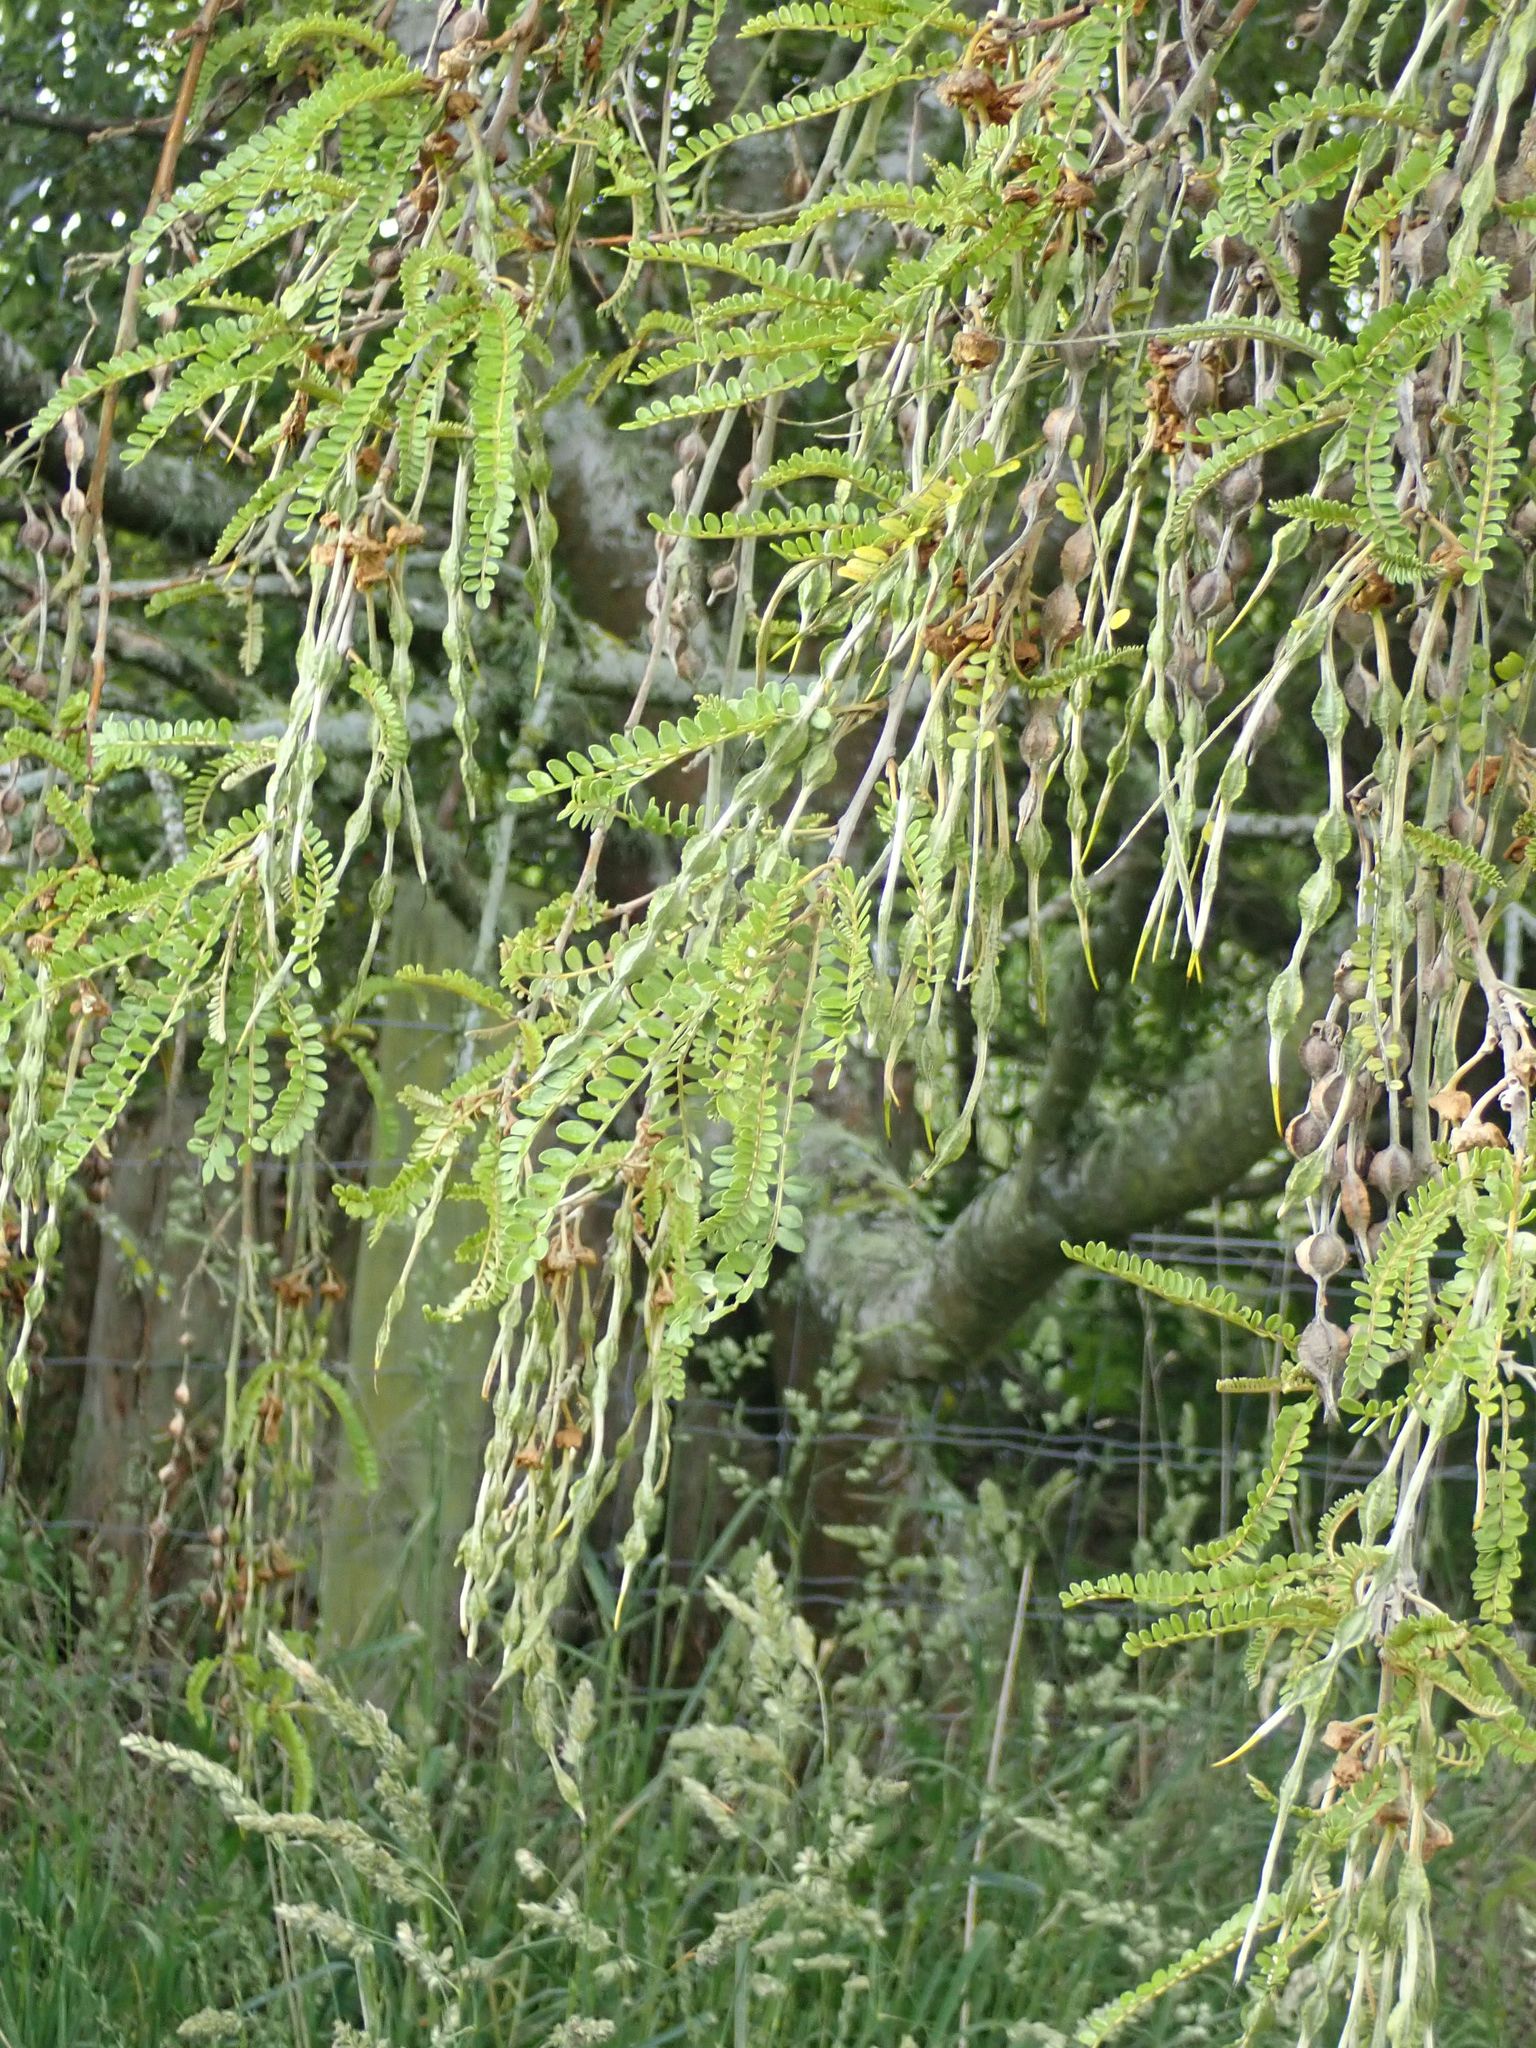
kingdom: Plantae
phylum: Tracheophyta
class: Magnoliopsida
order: Fabales
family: Fabaceae
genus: Sophora
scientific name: Sophora microphylla
